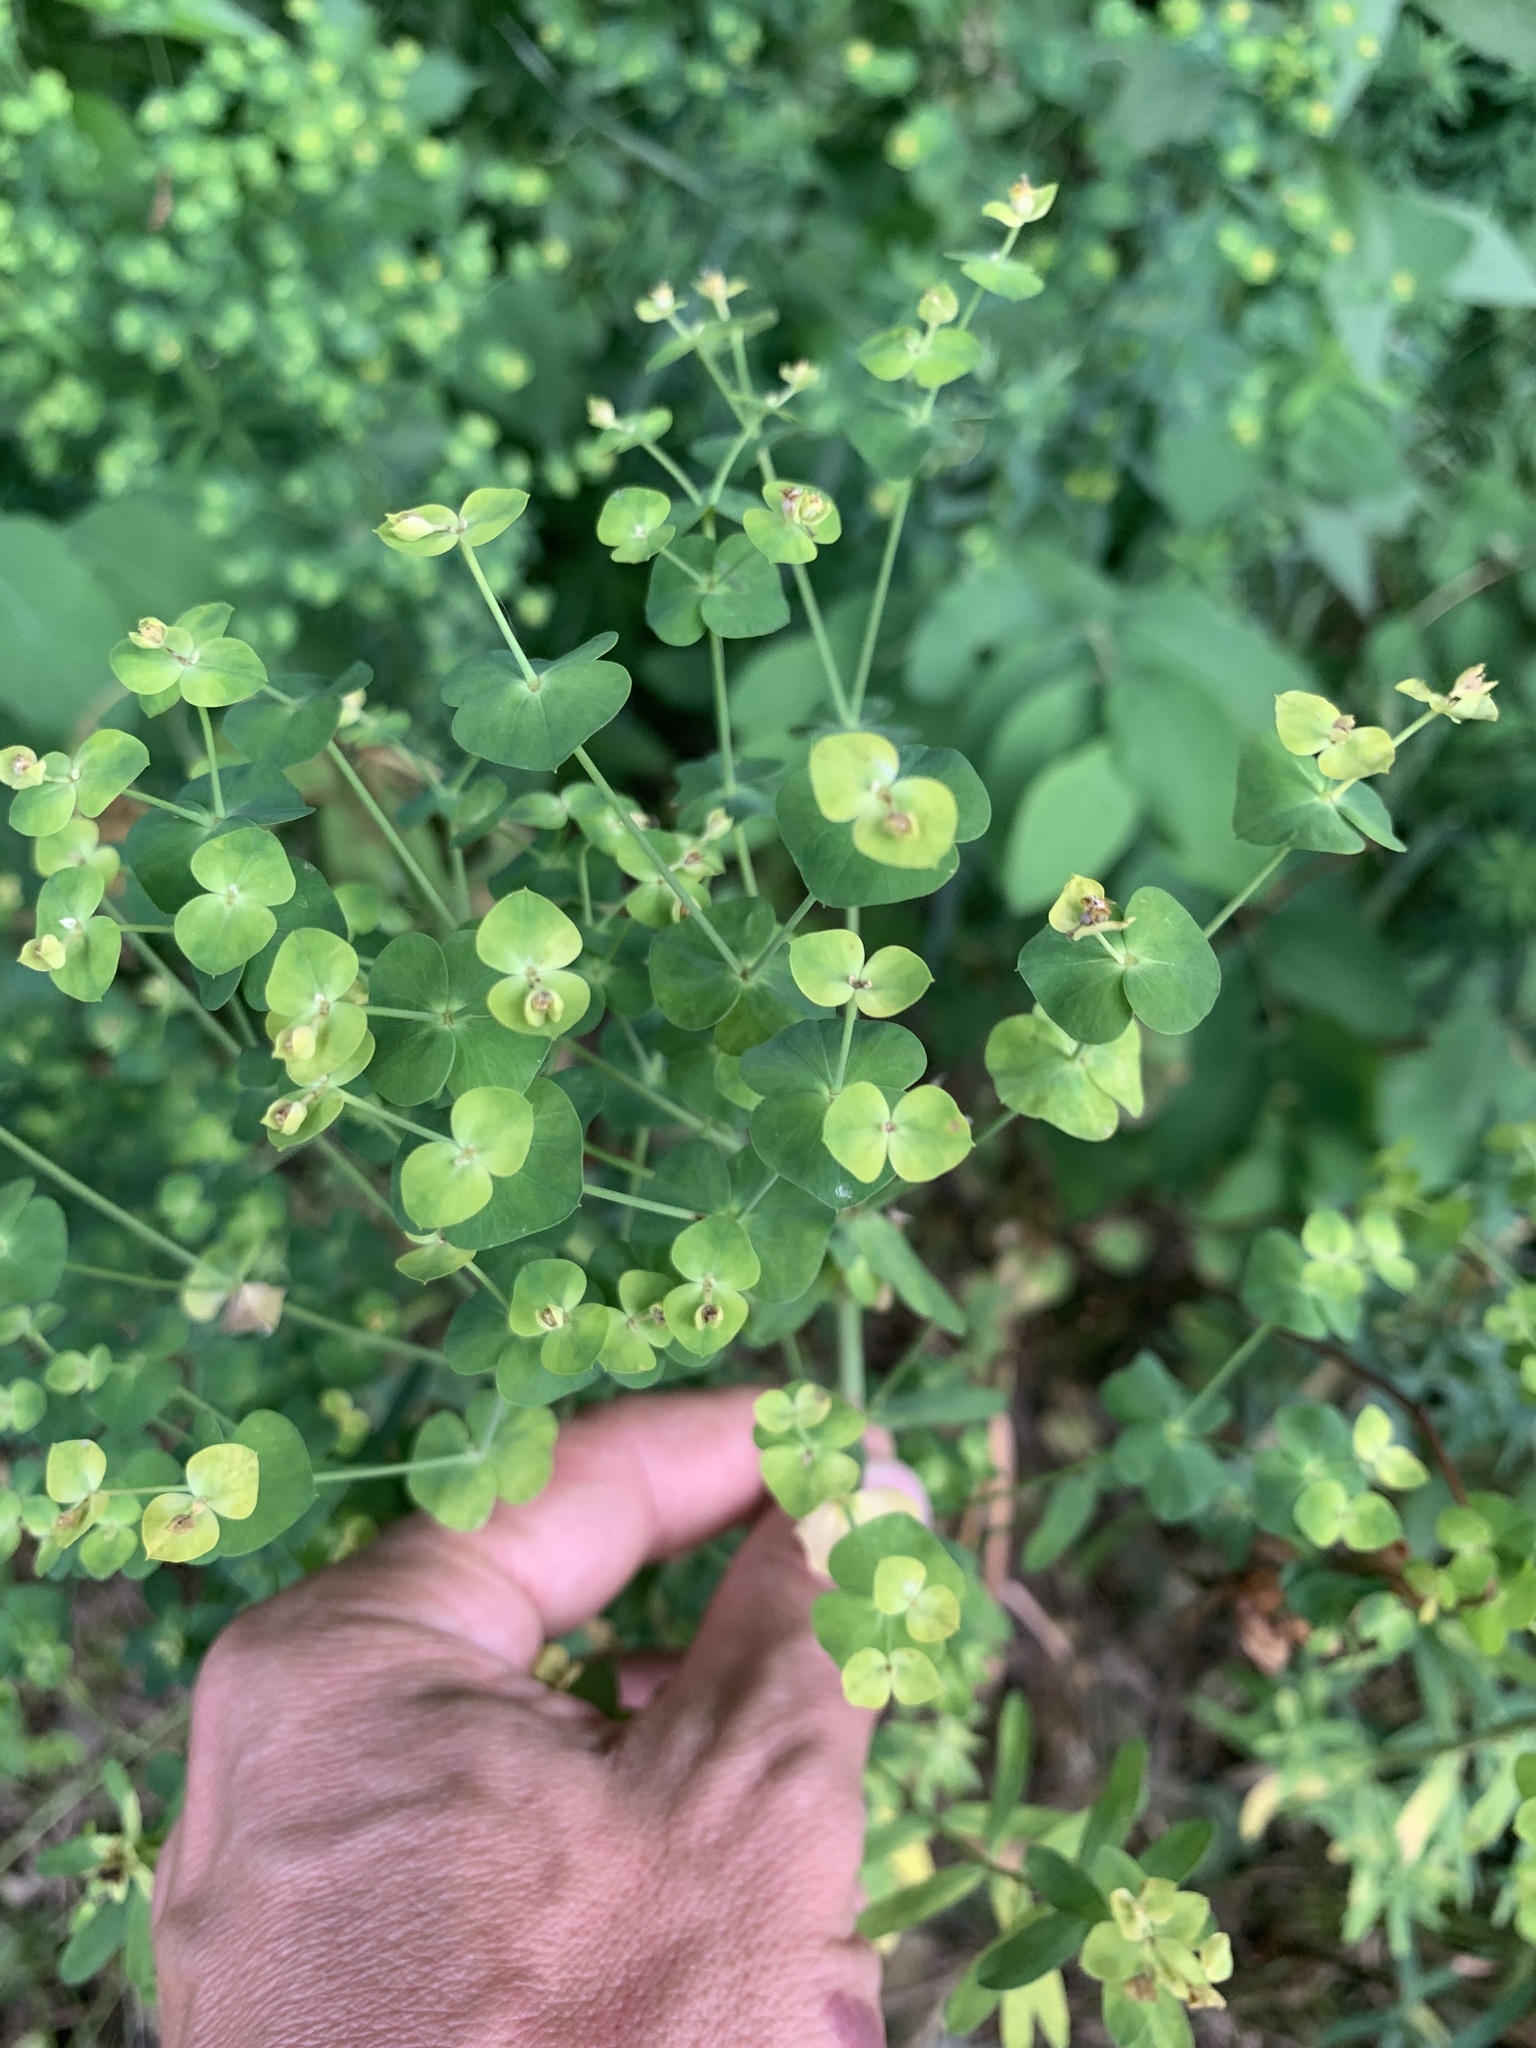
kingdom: Plantae
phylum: Tracheophyta
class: Magnoliopsida
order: Malpighiales
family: Euphorbiaceae
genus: Euphorbia
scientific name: Euphorbia virgata
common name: Leafy spurge
